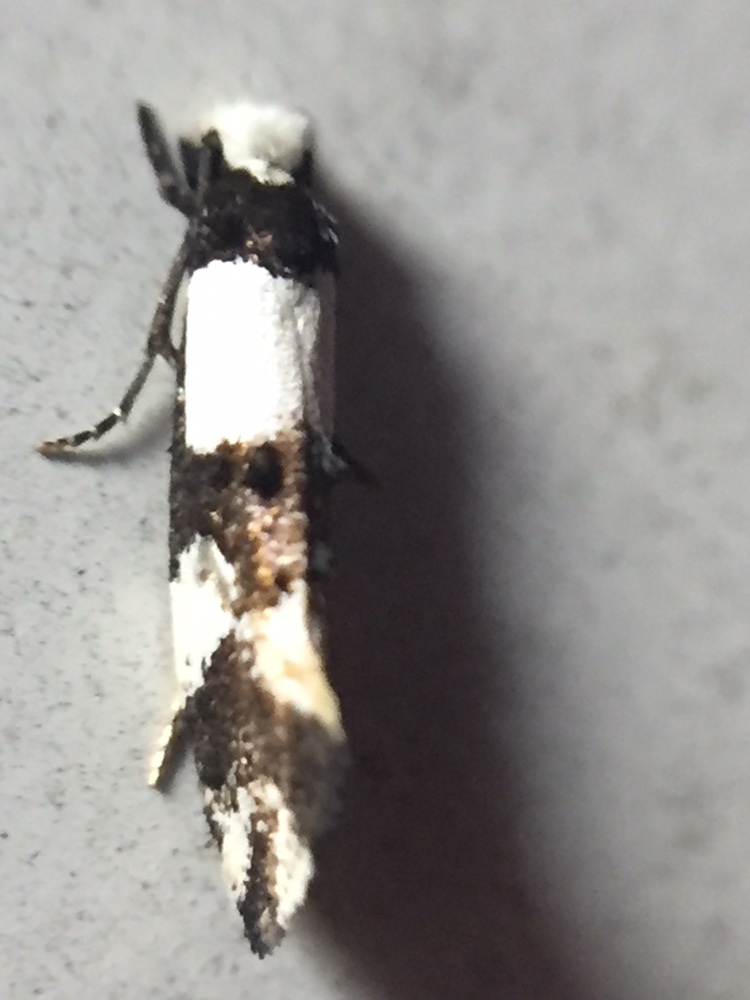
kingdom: Animalia
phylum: Arthropoda
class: Insecta
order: Lepidoptera
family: Tineidae
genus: Monopis
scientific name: Monopis icterogastra
